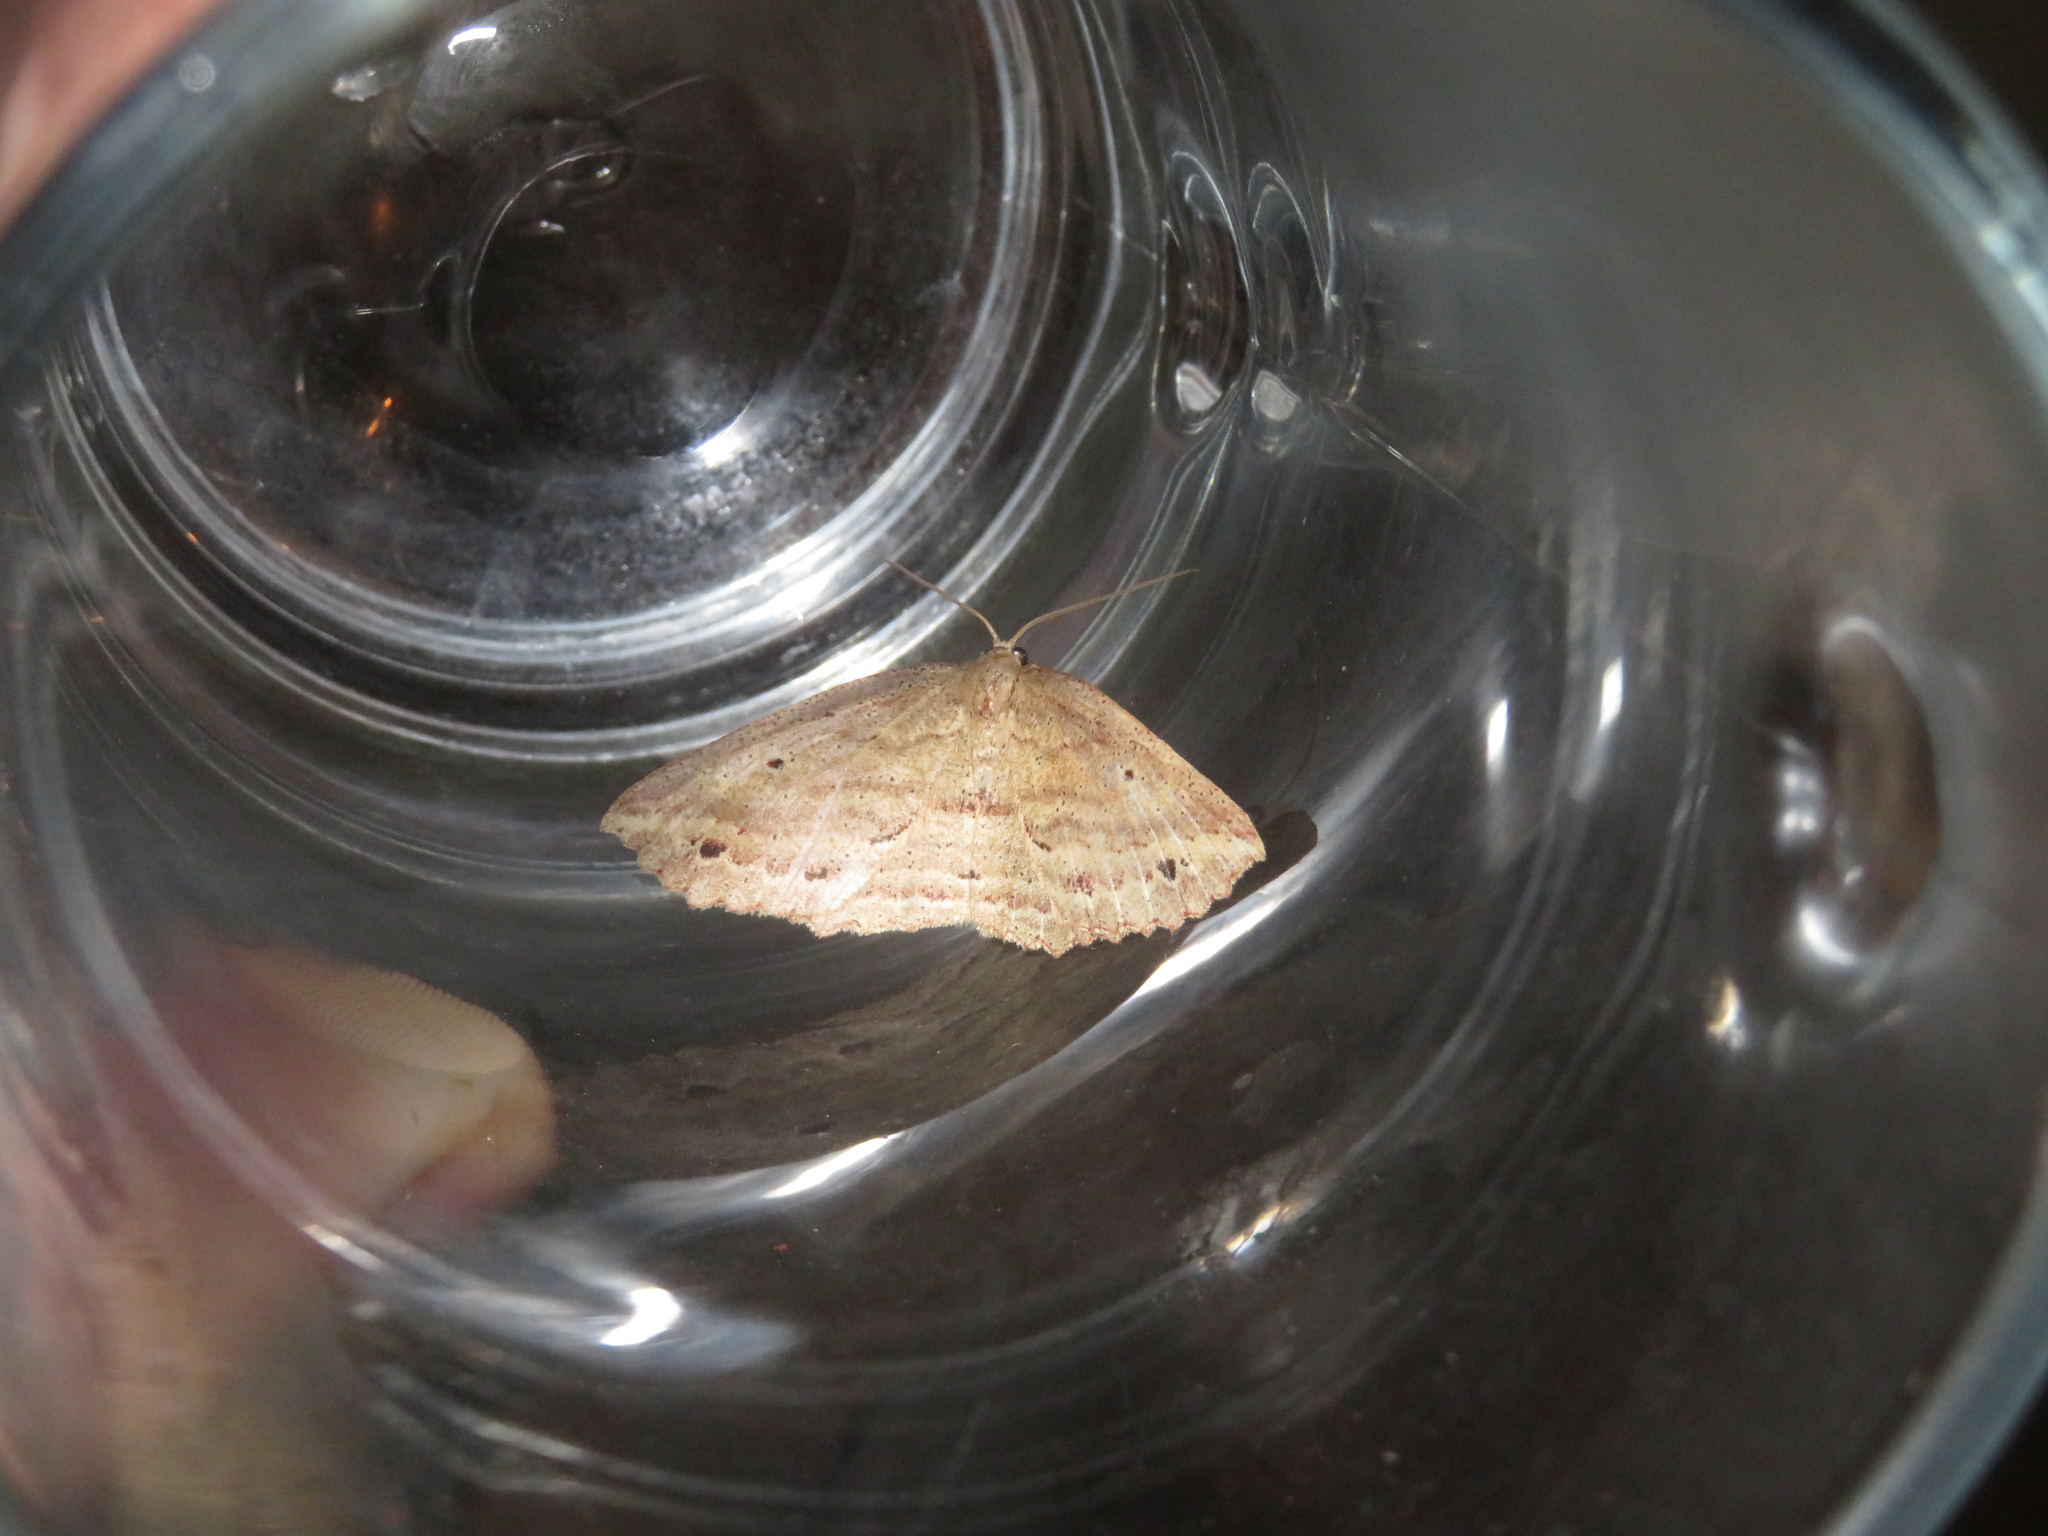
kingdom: Animalia
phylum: Arthropoda
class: Insecta
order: Lepidoptera
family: Geometridae
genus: Xyridacma
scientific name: Xyridacma veronicae
